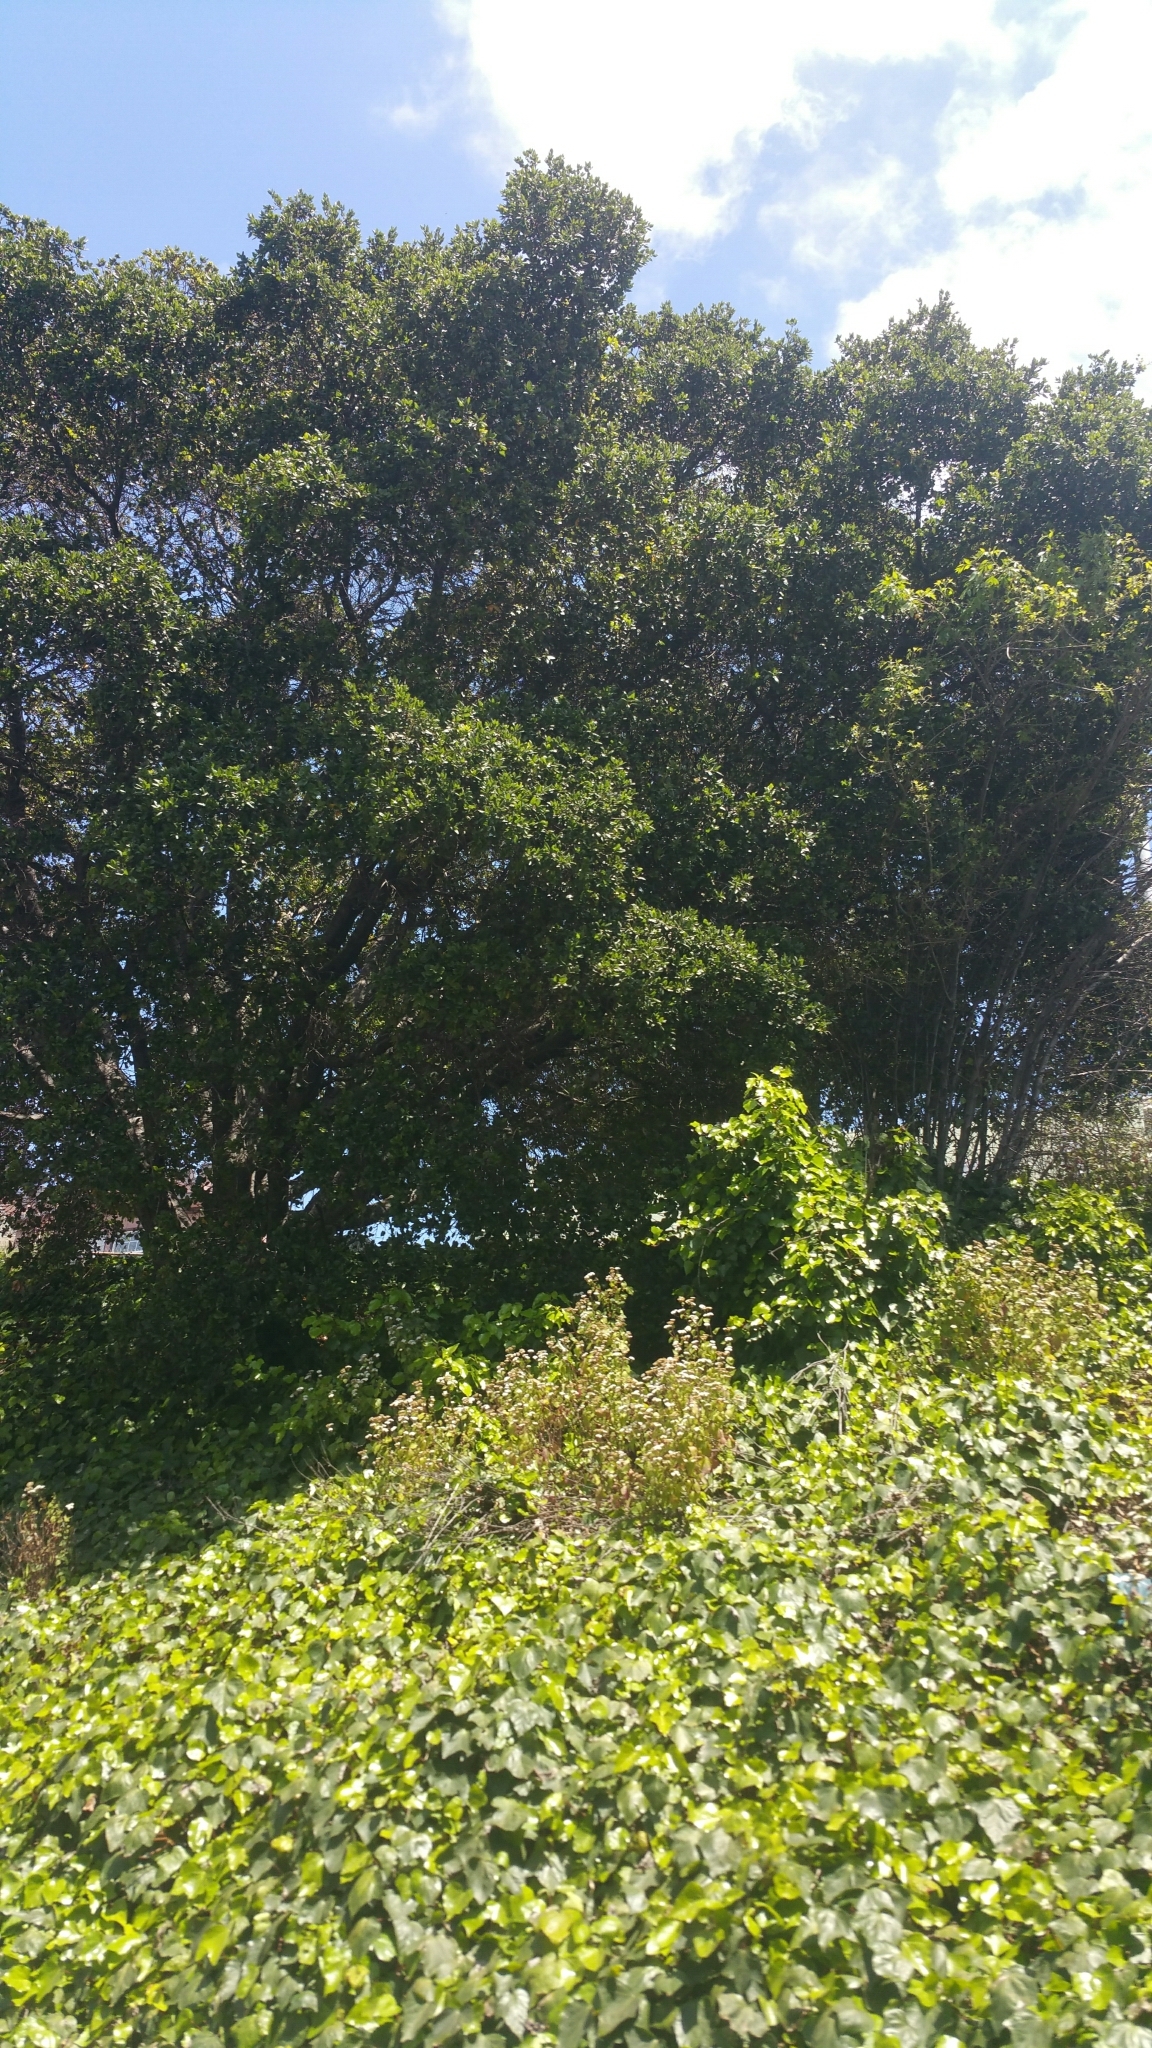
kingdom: Plantae
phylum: Tracheophyta
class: Magnoliopsida
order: Fagales
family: Fagaceae
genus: Quercus
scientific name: Quercus agrifolia
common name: California live oak
